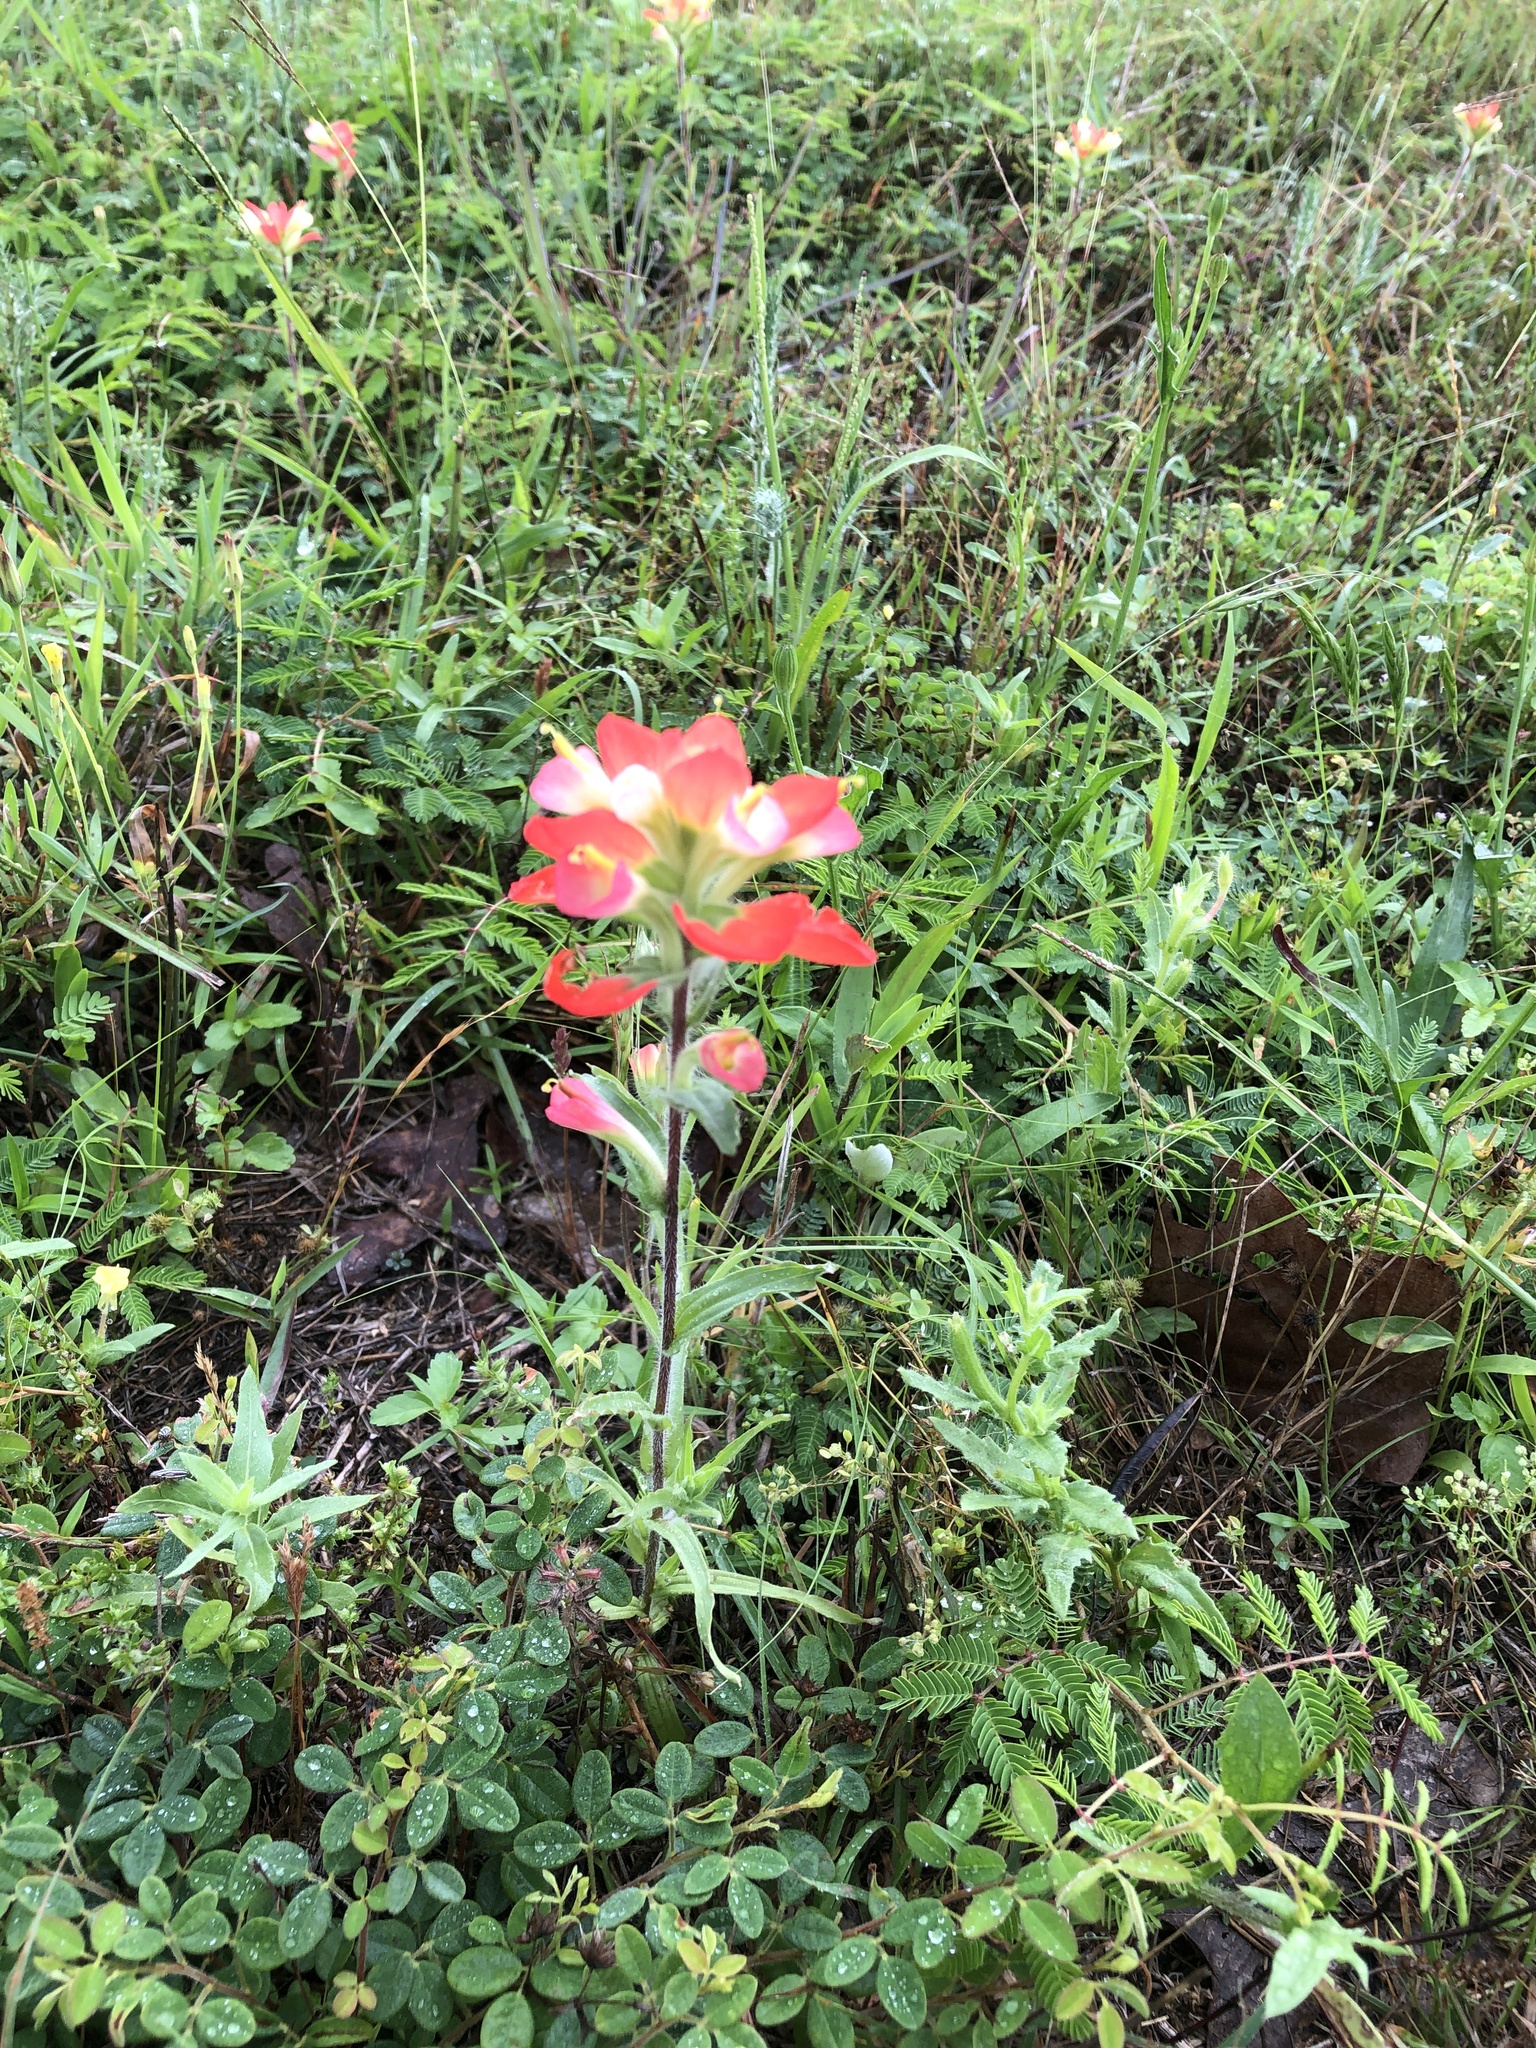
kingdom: Plantae
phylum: Tracheophyta
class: Magnoliopsida
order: Lamiales
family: Orobanchaceae
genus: Castilleja
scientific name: Castilleja indivisa
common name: Texas paintbrush
